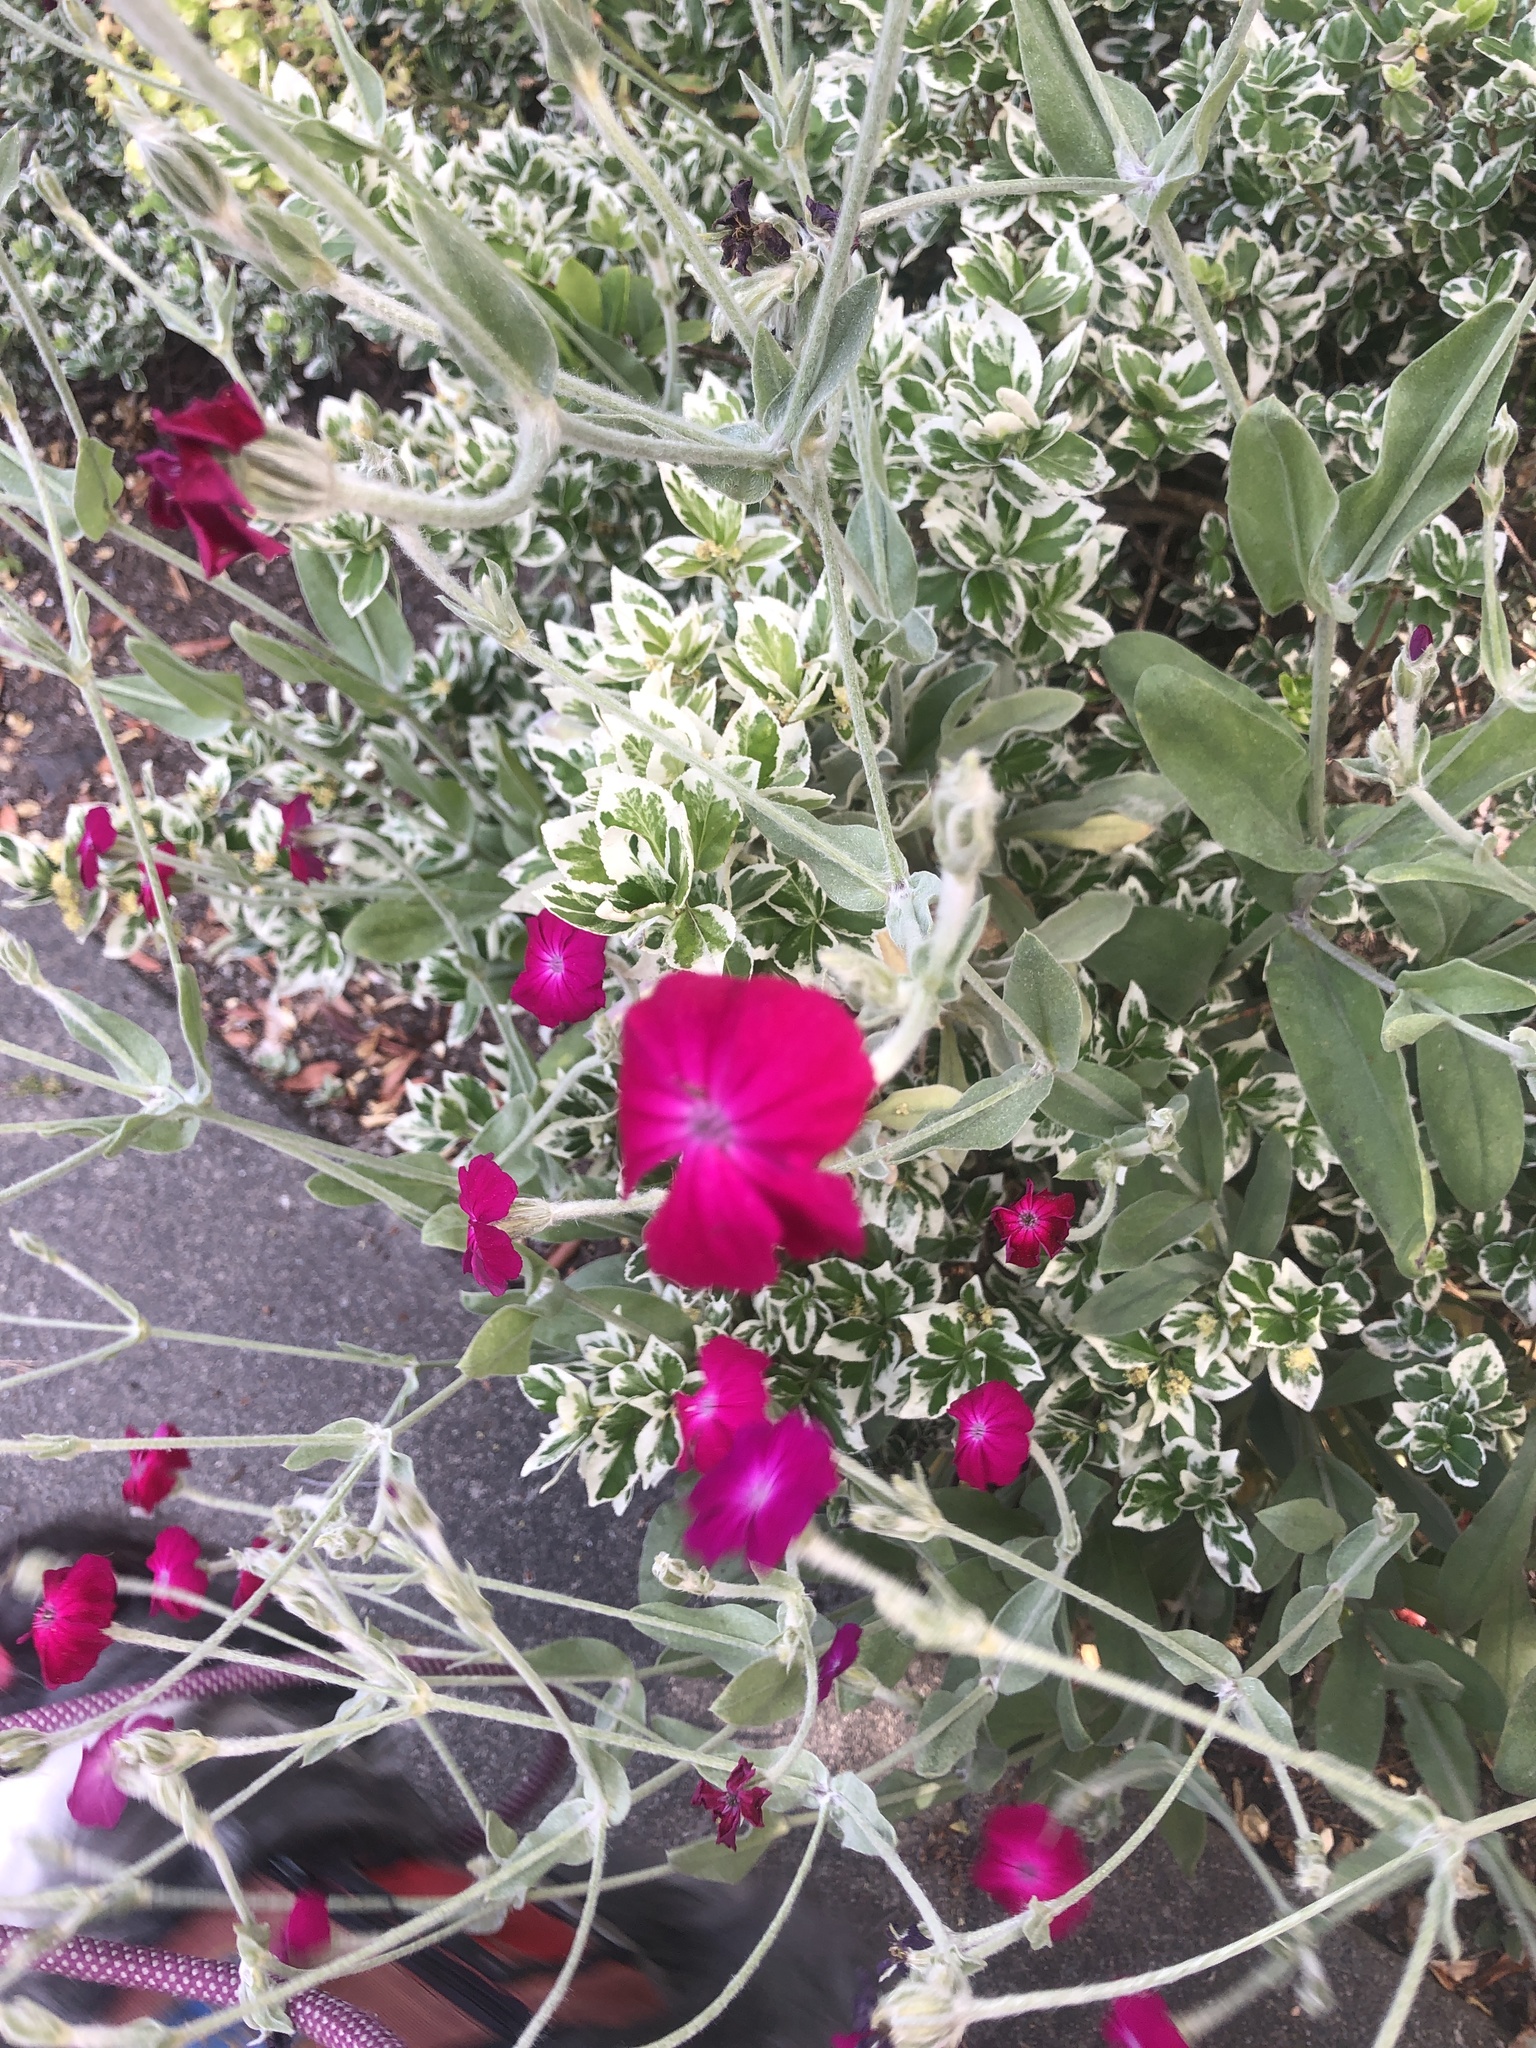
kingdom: Plantae
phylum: Tracheophyta
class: Magnoliopsida
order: Caryophyllales
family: Caryophyllaceae
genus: Silene
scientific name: Silene coronaria
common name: Rose campion
